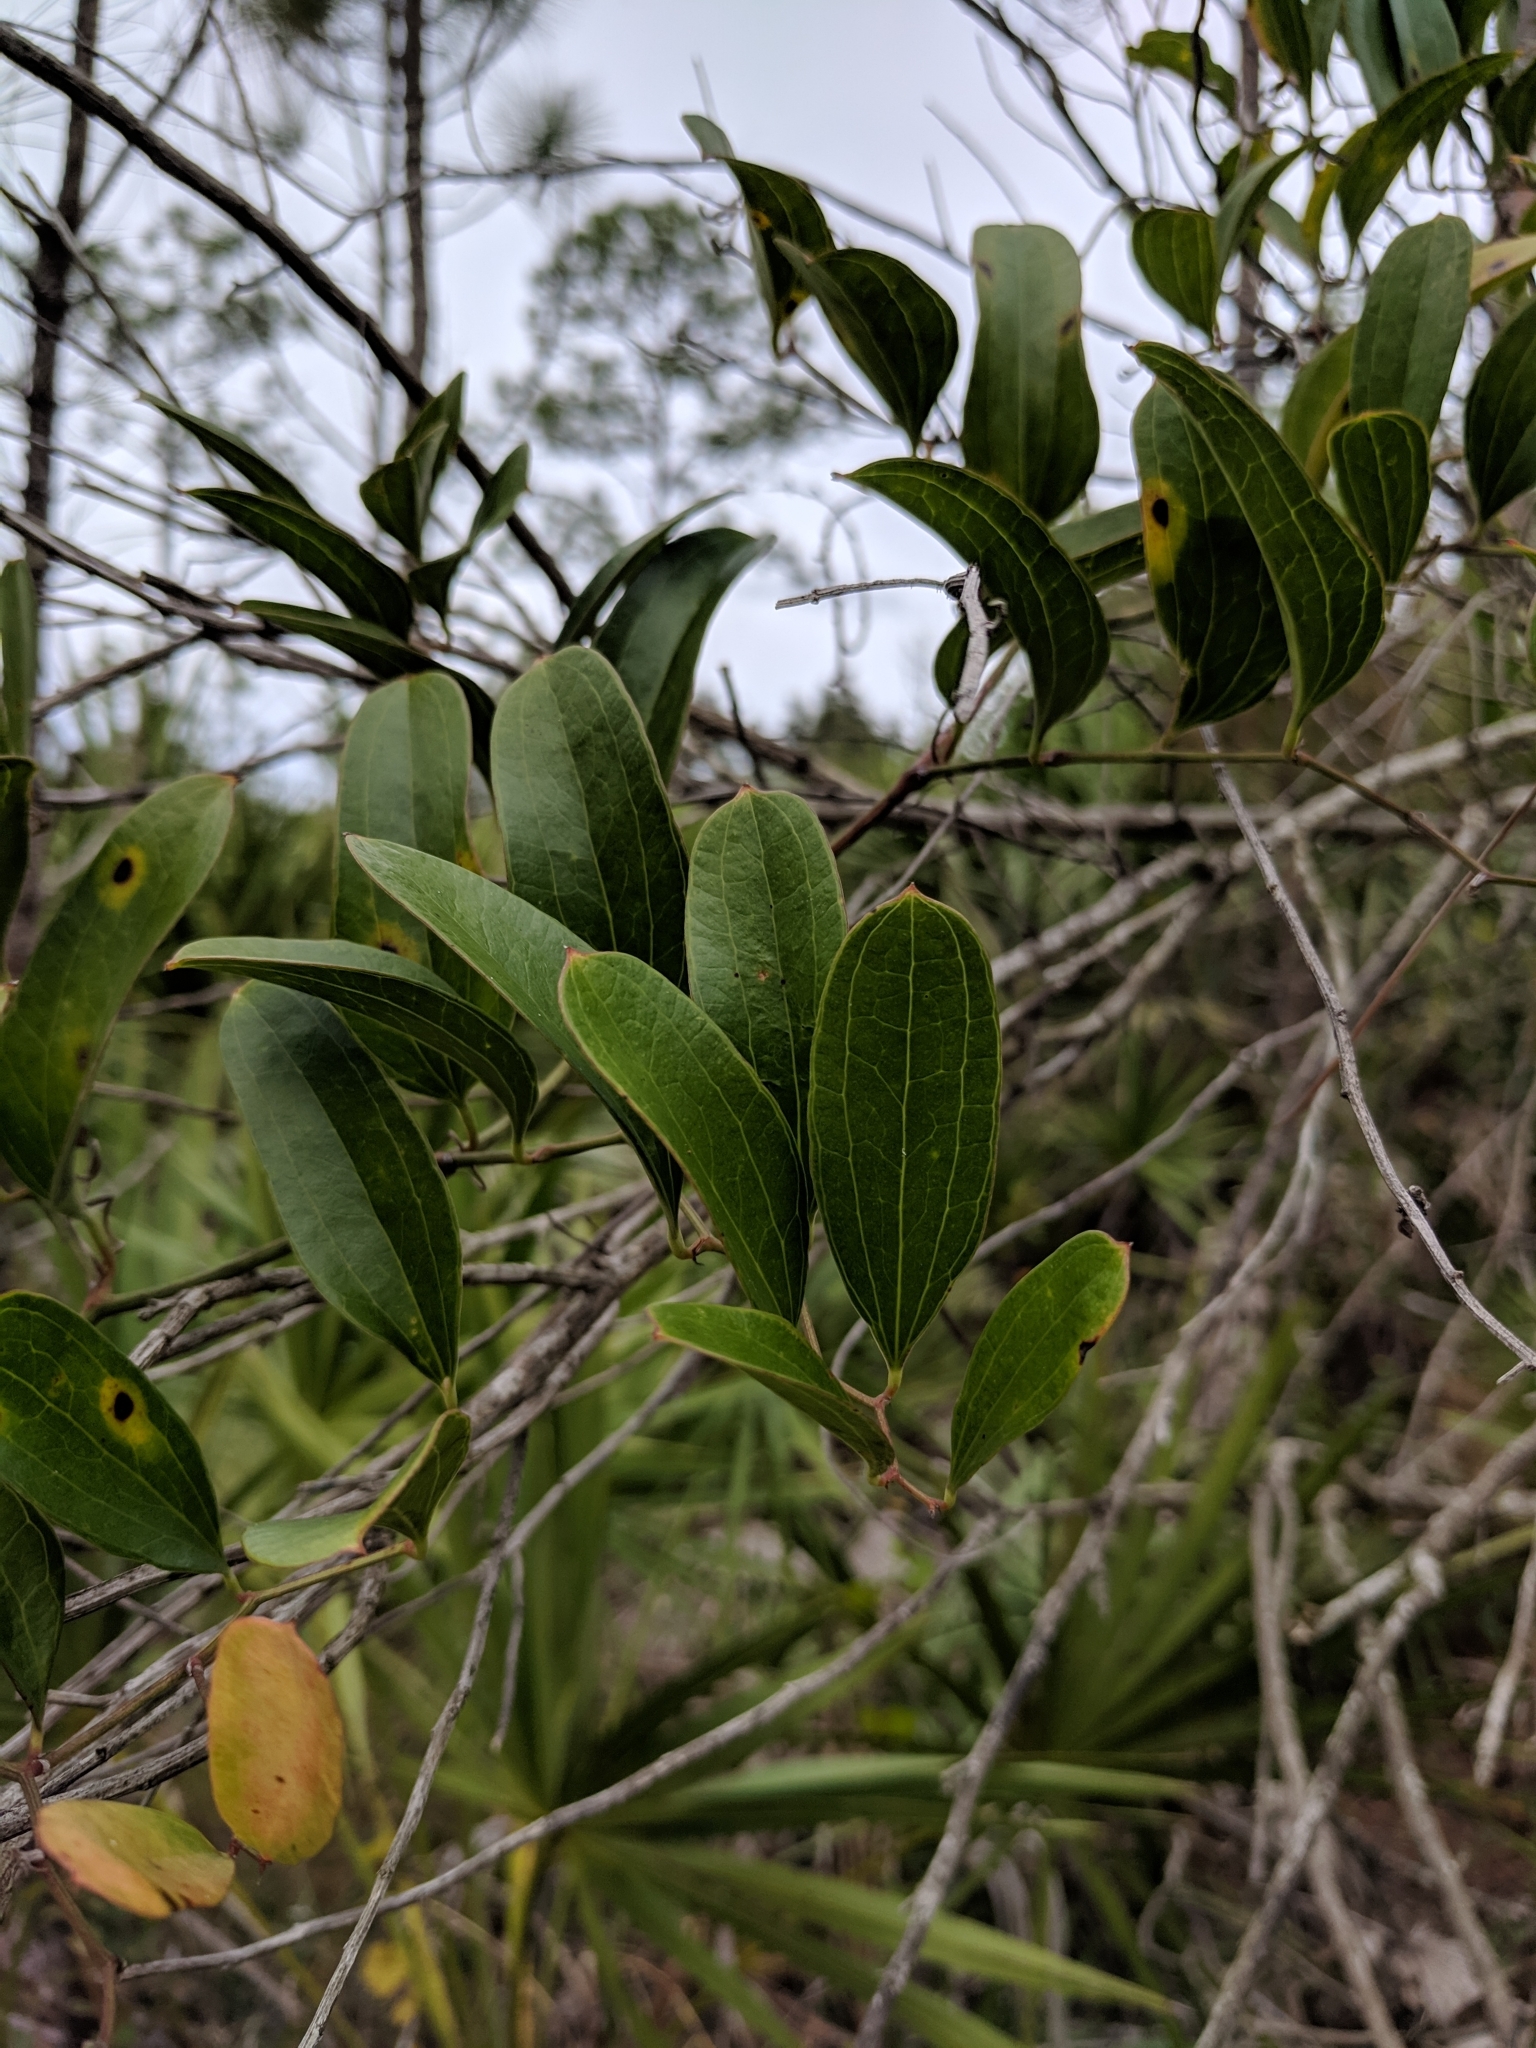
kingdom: Plantae
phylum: Tracheophyta
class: Liliopsida
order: Liliales
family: Smilacaceae
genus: Smilax
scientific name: Smilax auriculata
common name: Wild bamboo
